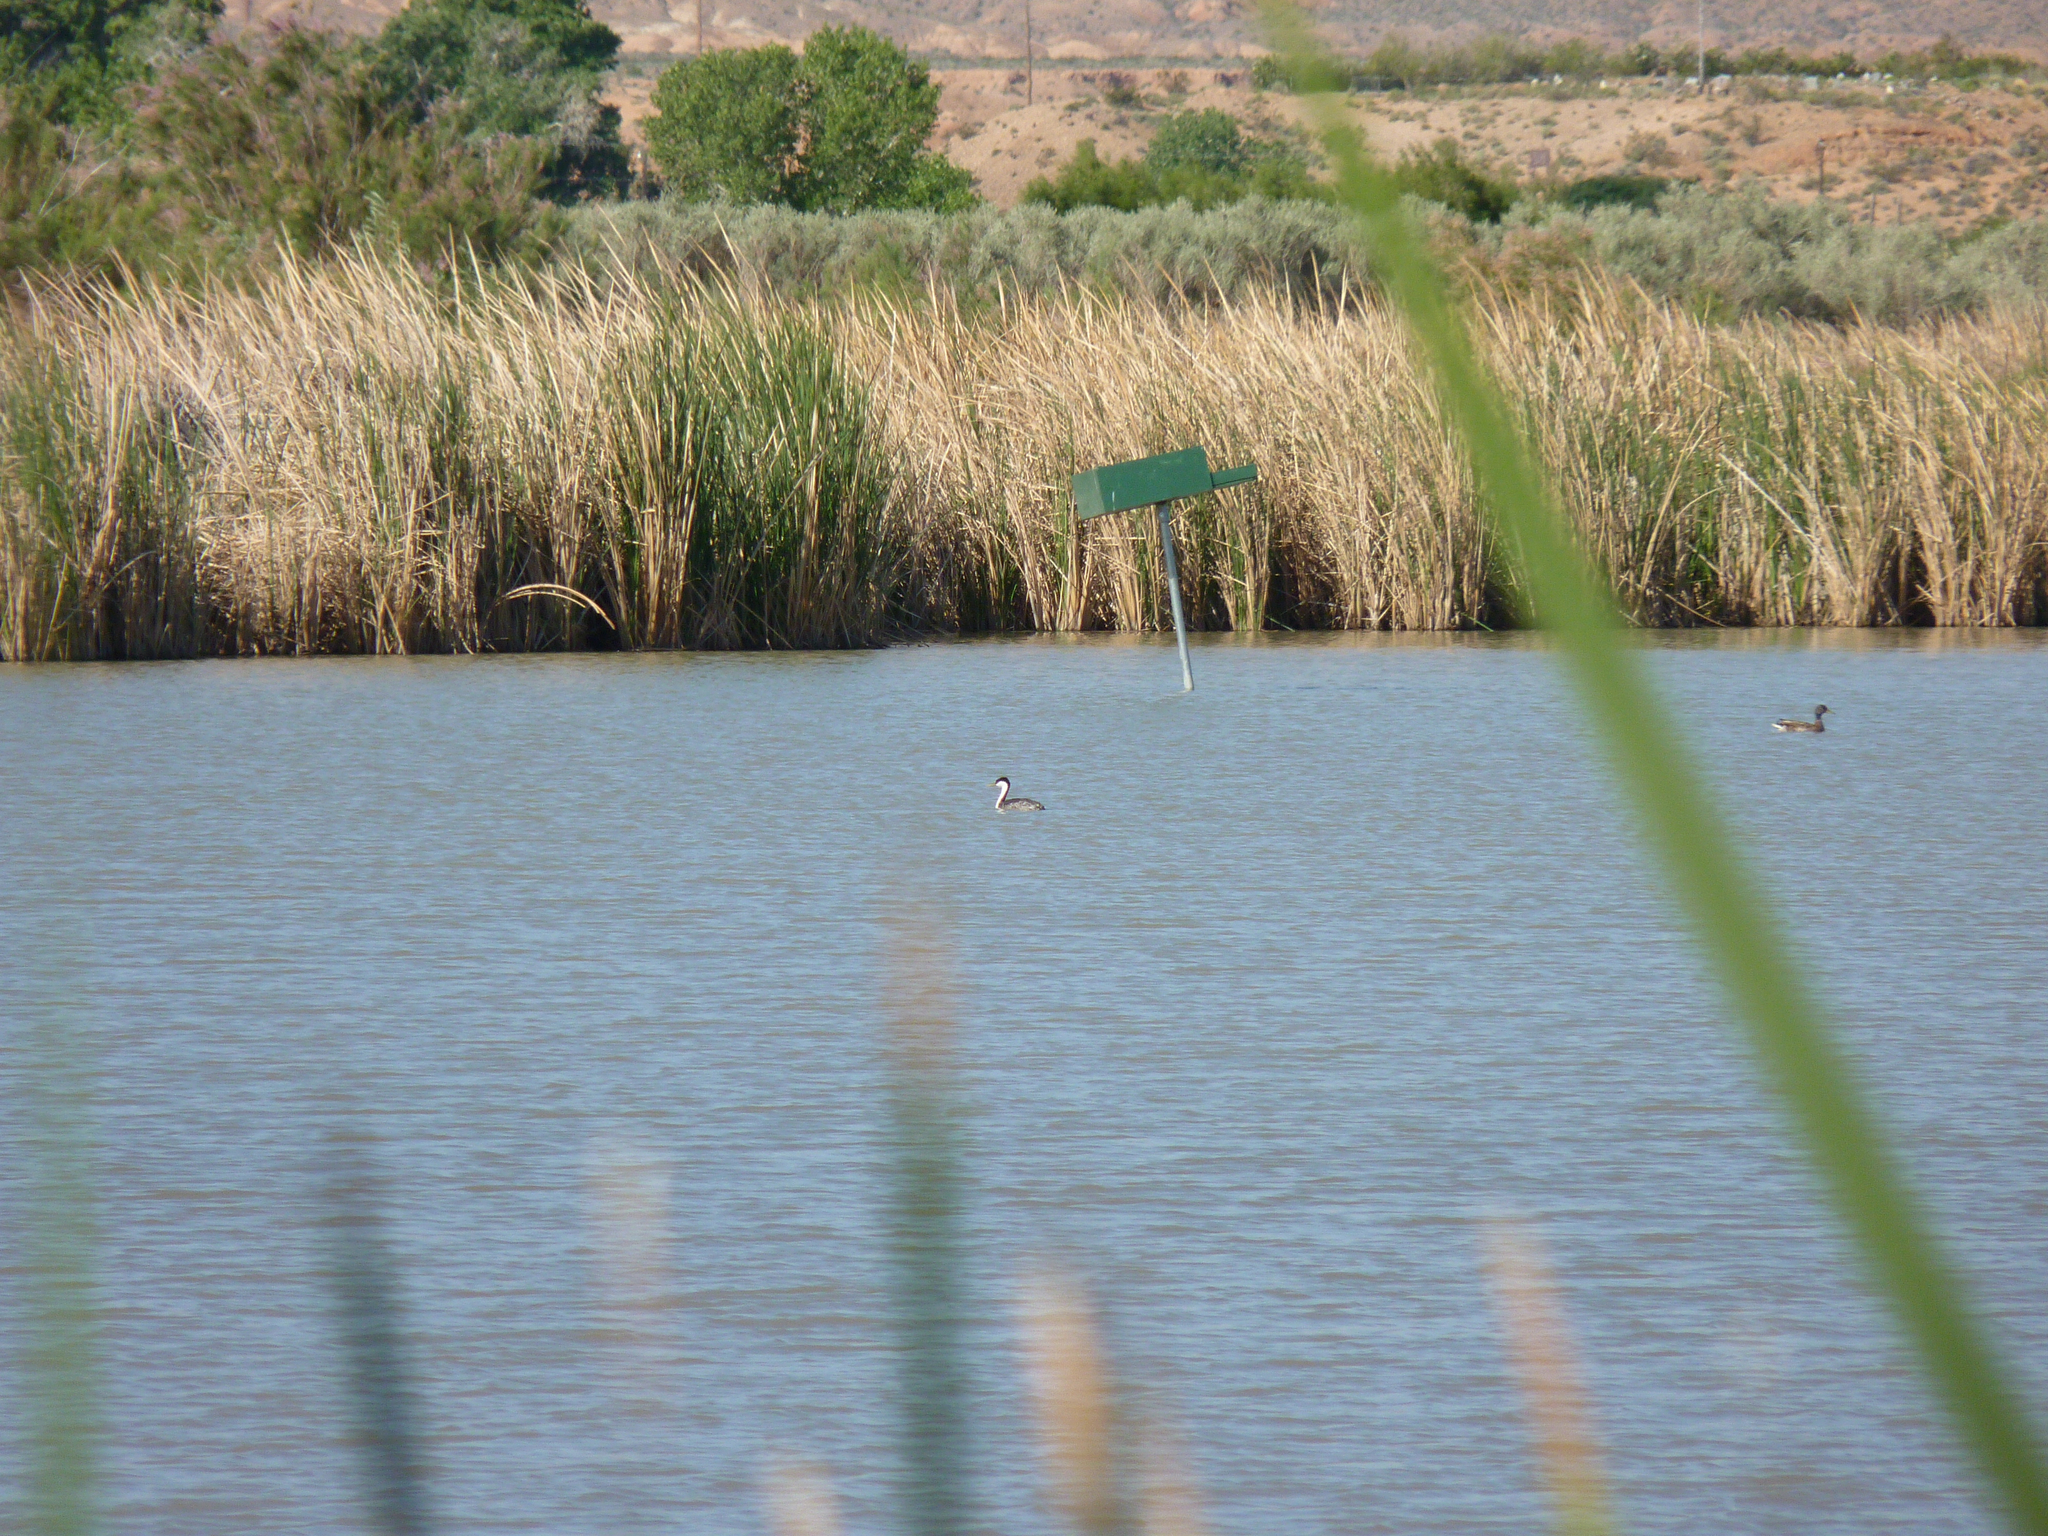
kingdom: Animalia
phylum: Chordata
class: Aves
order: Podicipediformes
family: Podicipedidae
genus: Aechmophorus
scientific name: Aechmophorus occidentalis
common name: Western grebe
